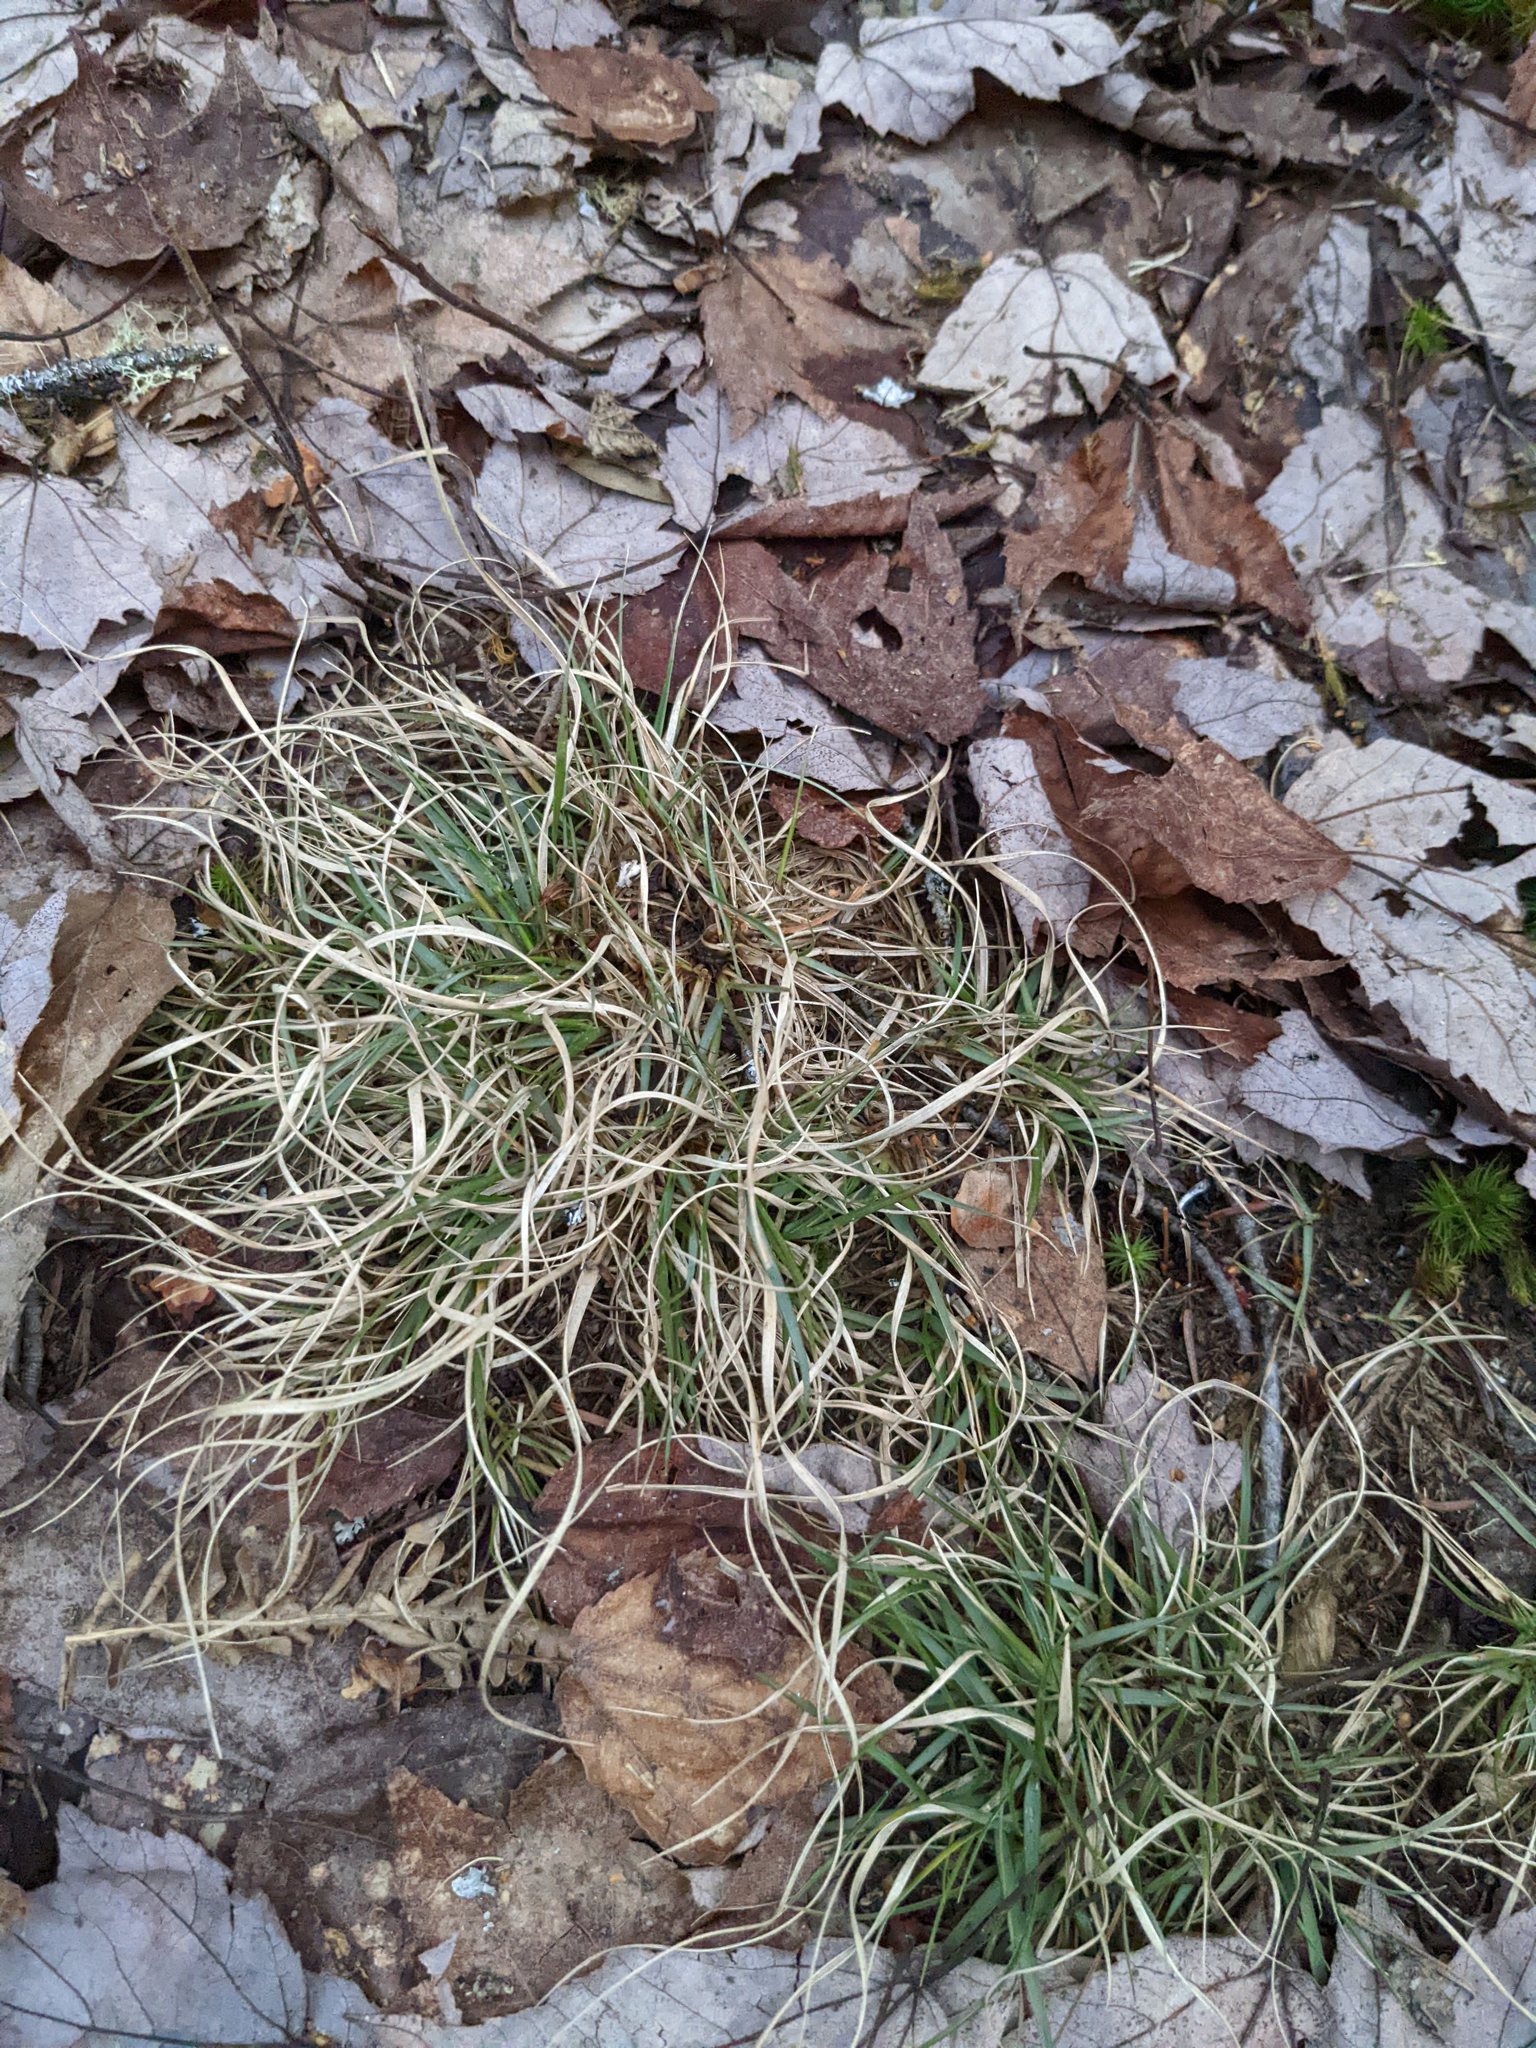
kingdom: Plantae
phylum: Tracheophyta
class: Liliopsida
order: Poales
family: Poaceae
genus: Danthonia
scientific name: Danthonia spicata
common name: Common wild oatgrass
